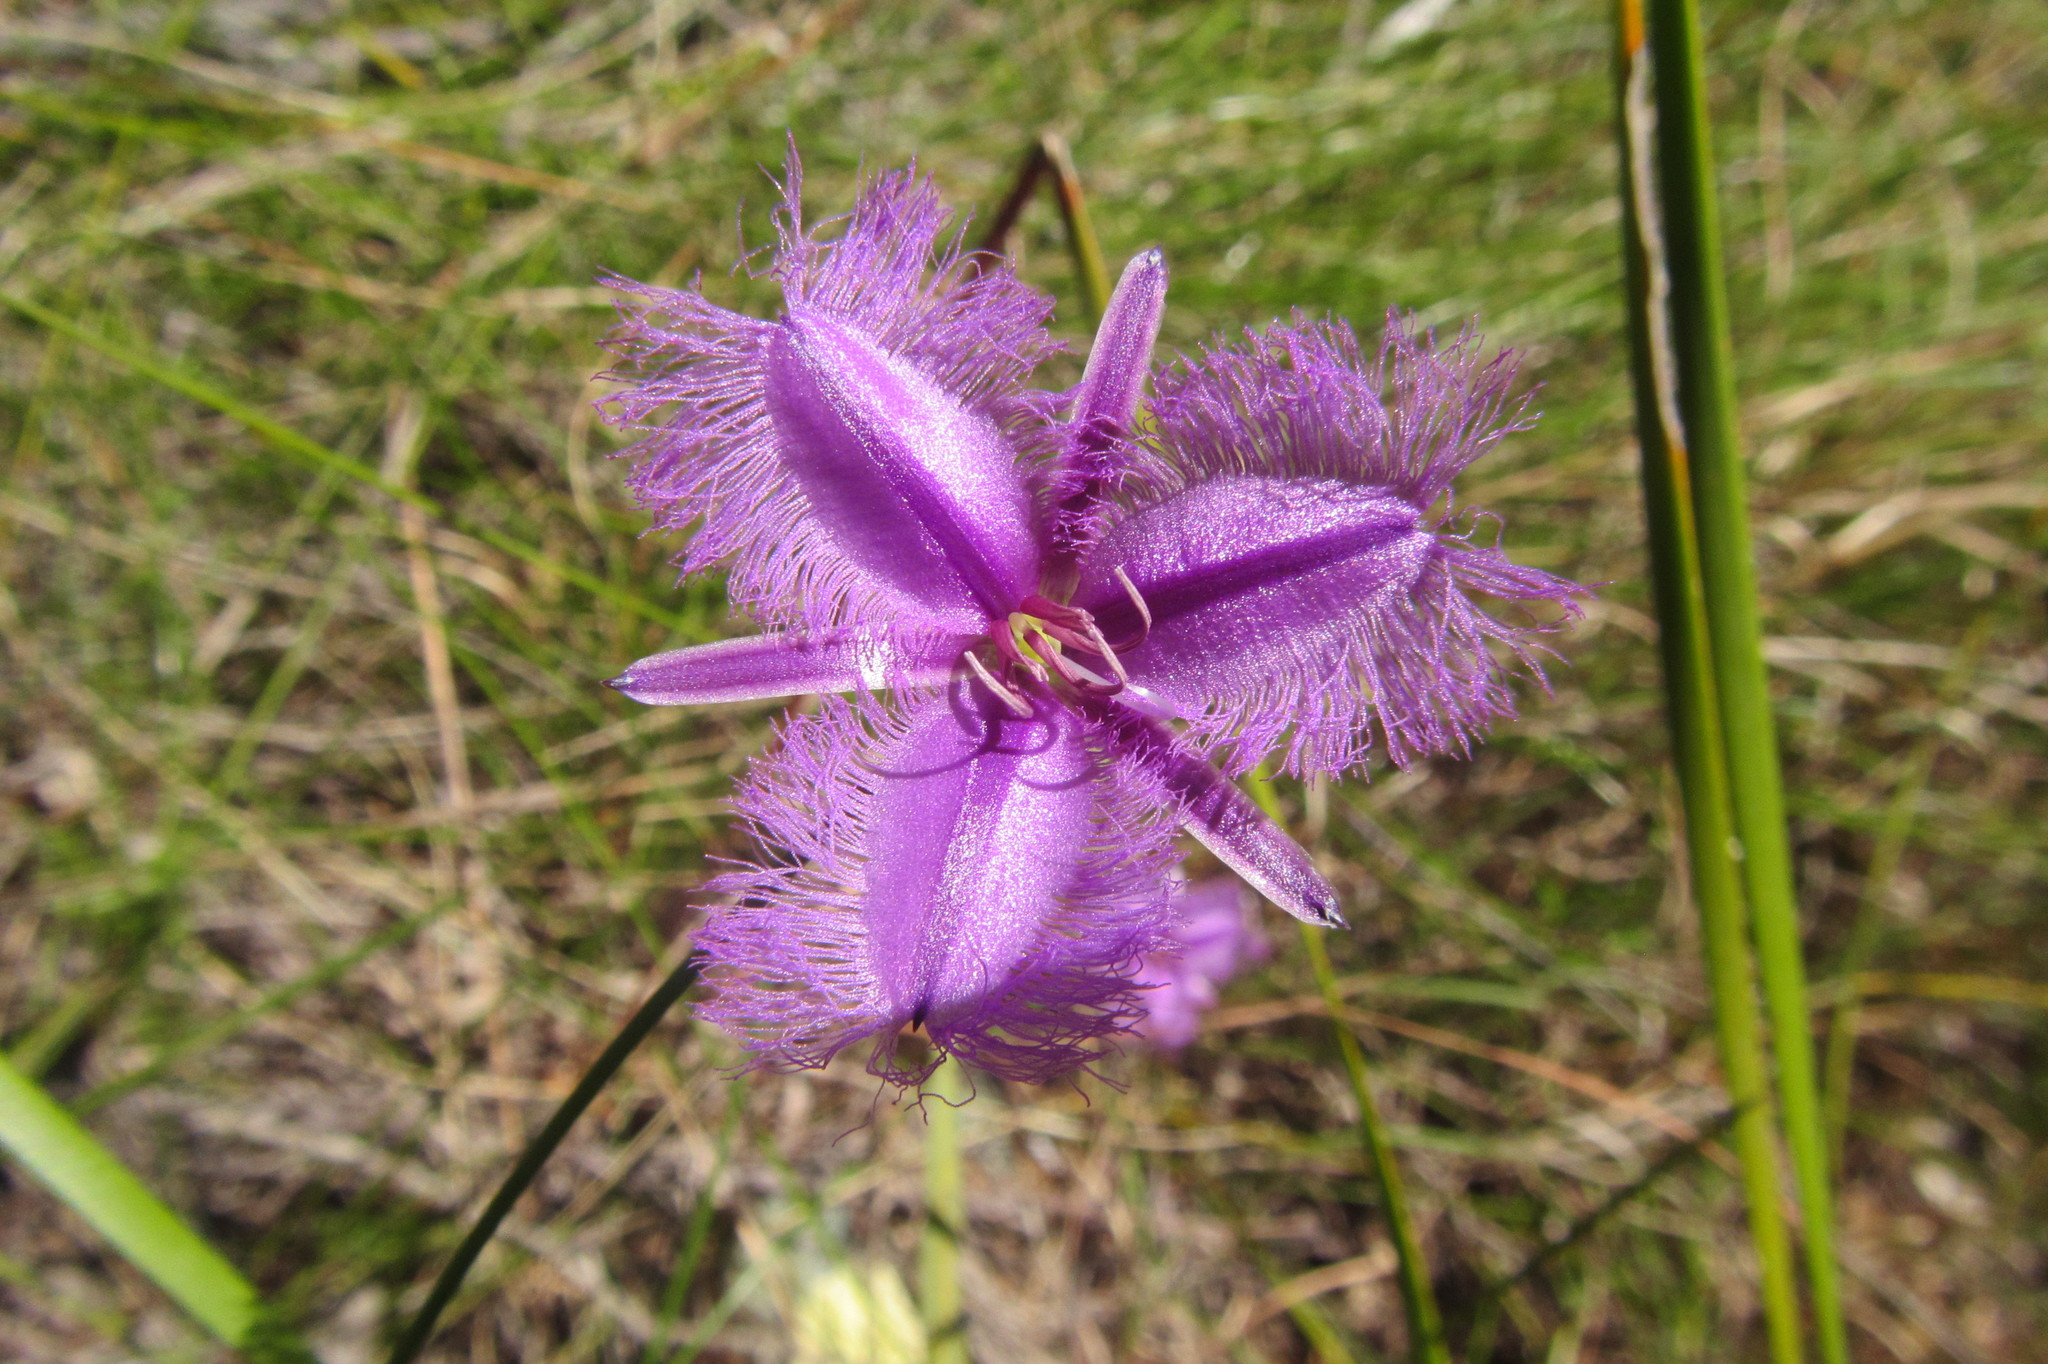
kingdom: Plantae
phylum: Tracheophyta
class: Liliopsida
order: Asparagales
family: Asparagaceae
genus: Thysanotus
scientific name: Thysanotus tuberosus
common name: Common fringed-lily
